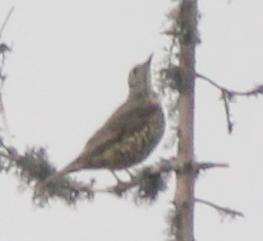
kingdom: Animalia
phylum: Chordata
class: Aves
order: Passeriformes
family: Turdidae
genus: Turdus
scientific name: Turdus viscivorus
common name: Mistle thrush
